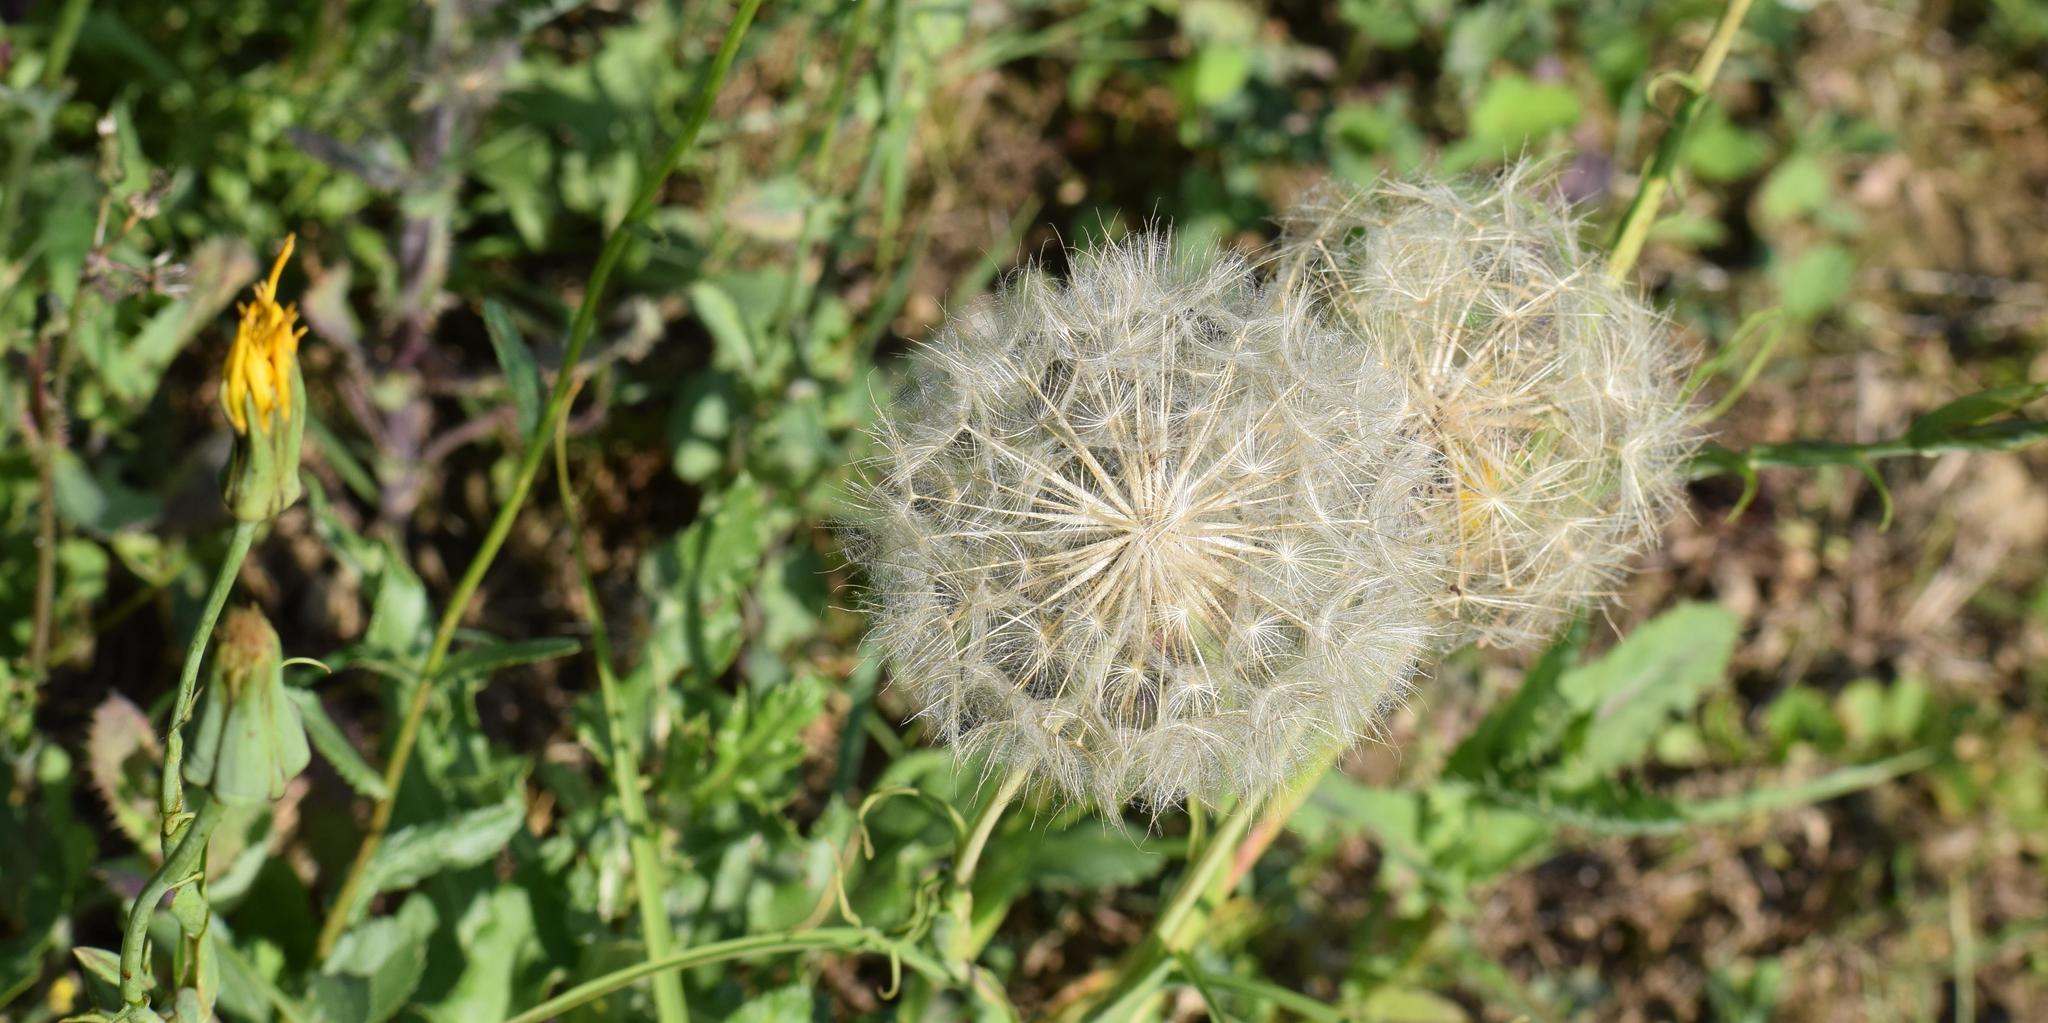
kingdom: Plantae
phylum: Tracheophyta
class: Magnoliopsida
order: Asterales
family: Asteraceae
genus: Tragopogon
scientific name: Tragopogon orientalis
